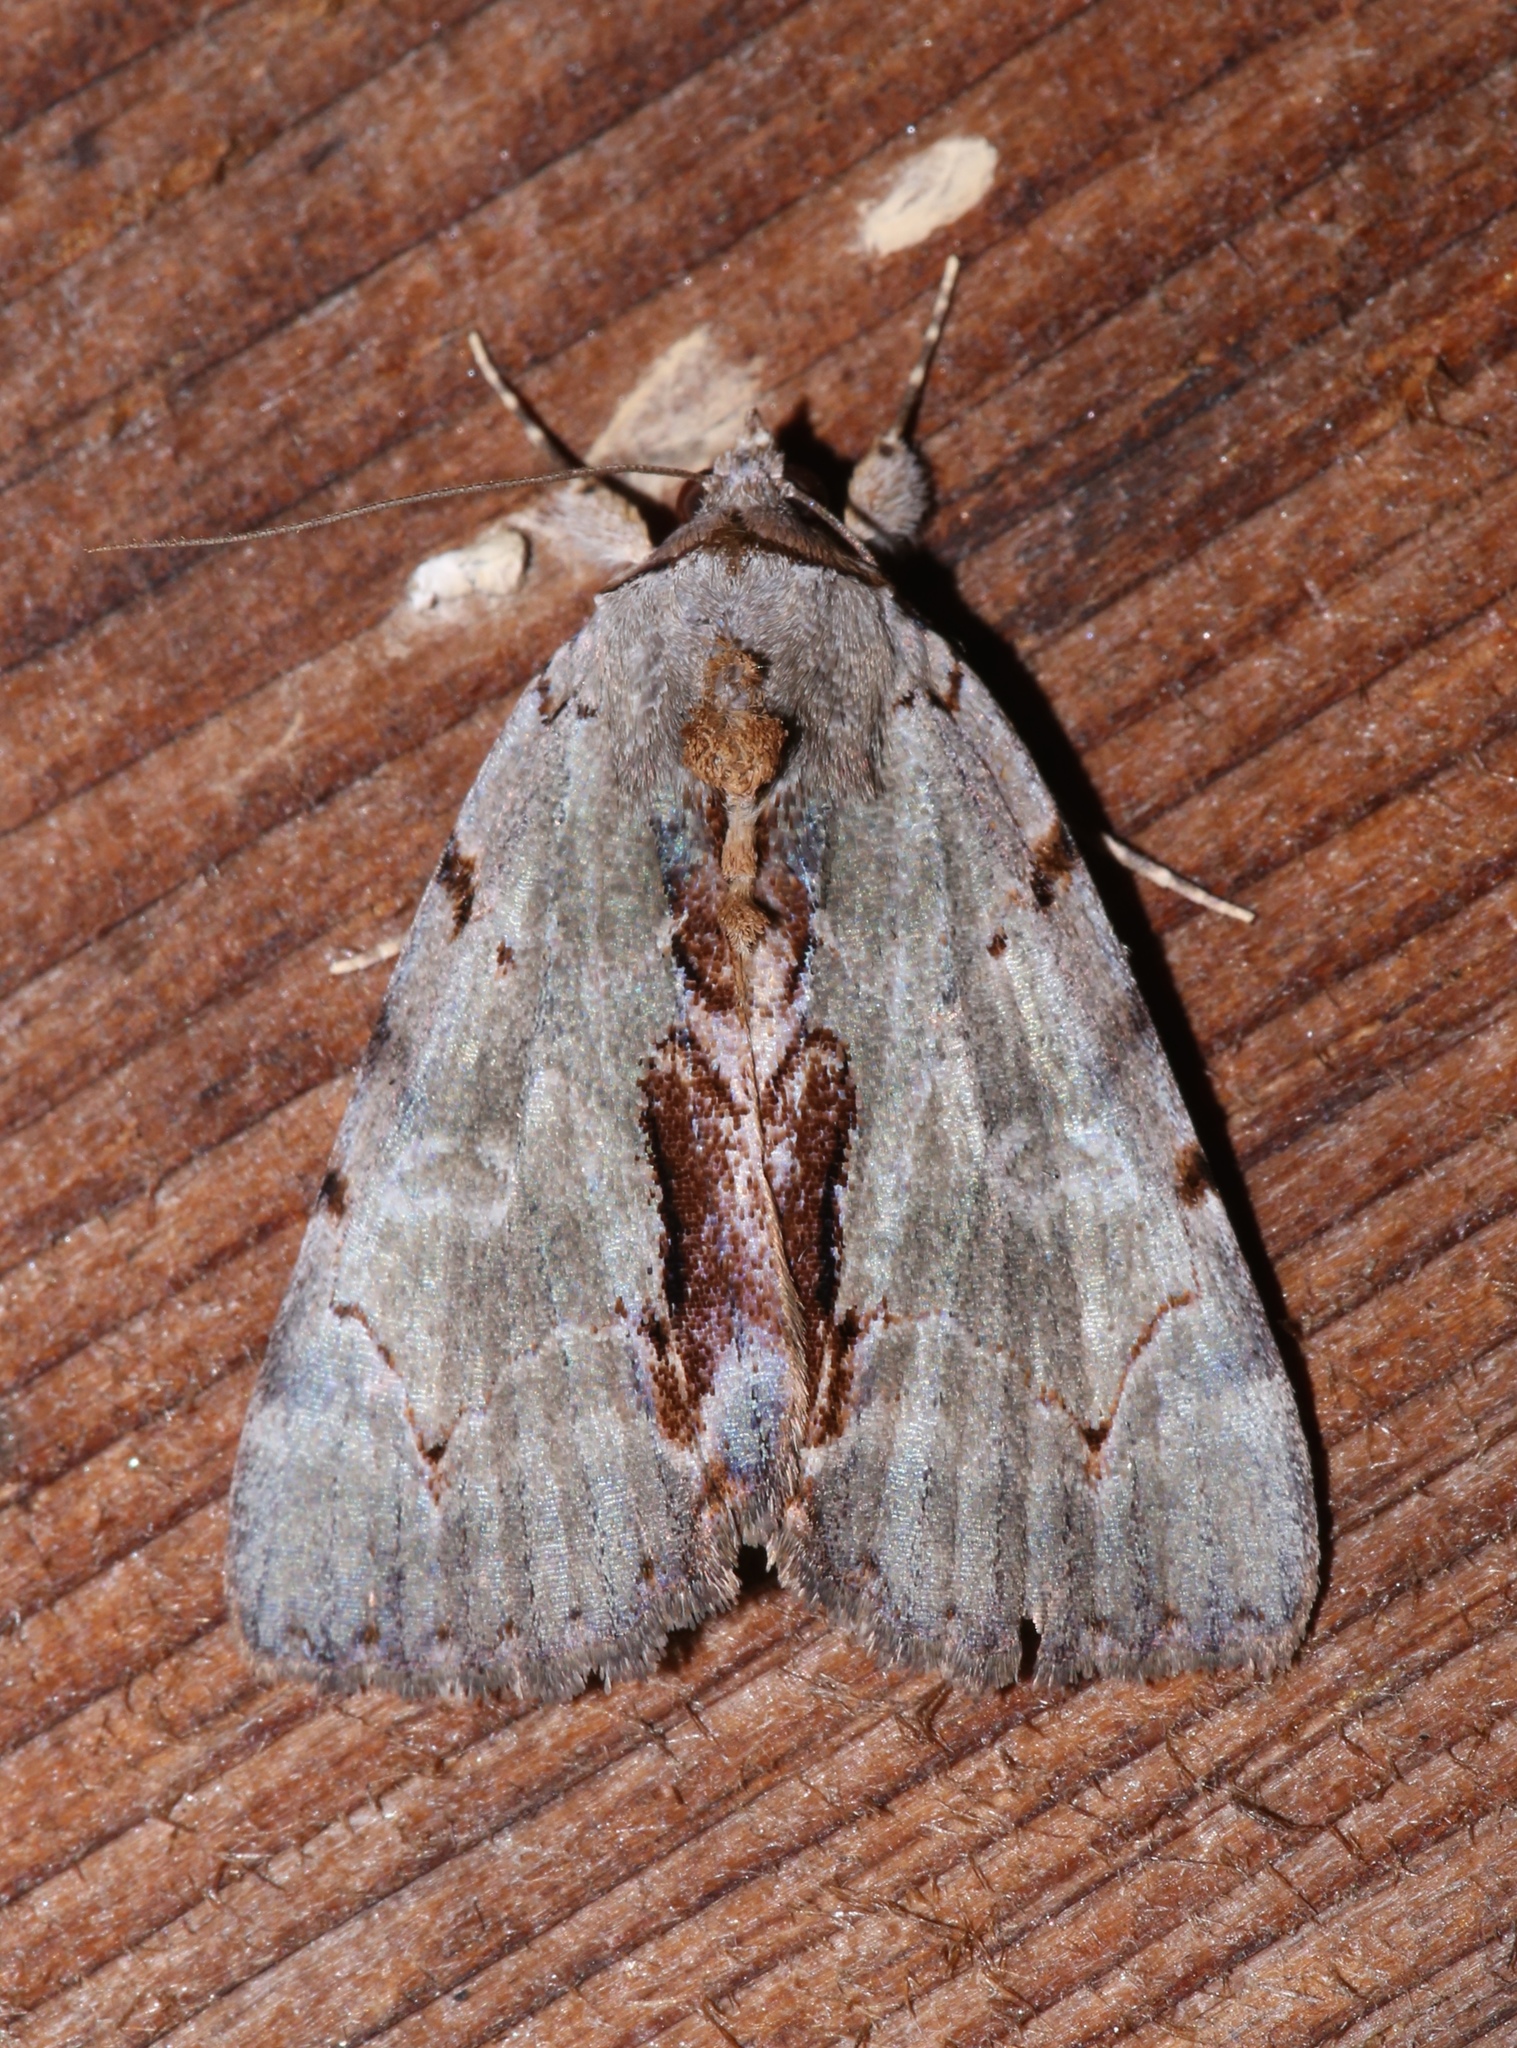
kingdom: Animalia
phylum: Arthropoda
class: Insecta
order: Lepidoptera
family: Erebidae
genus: Catocala
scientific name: Catocala grynea
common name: Woody underwing
